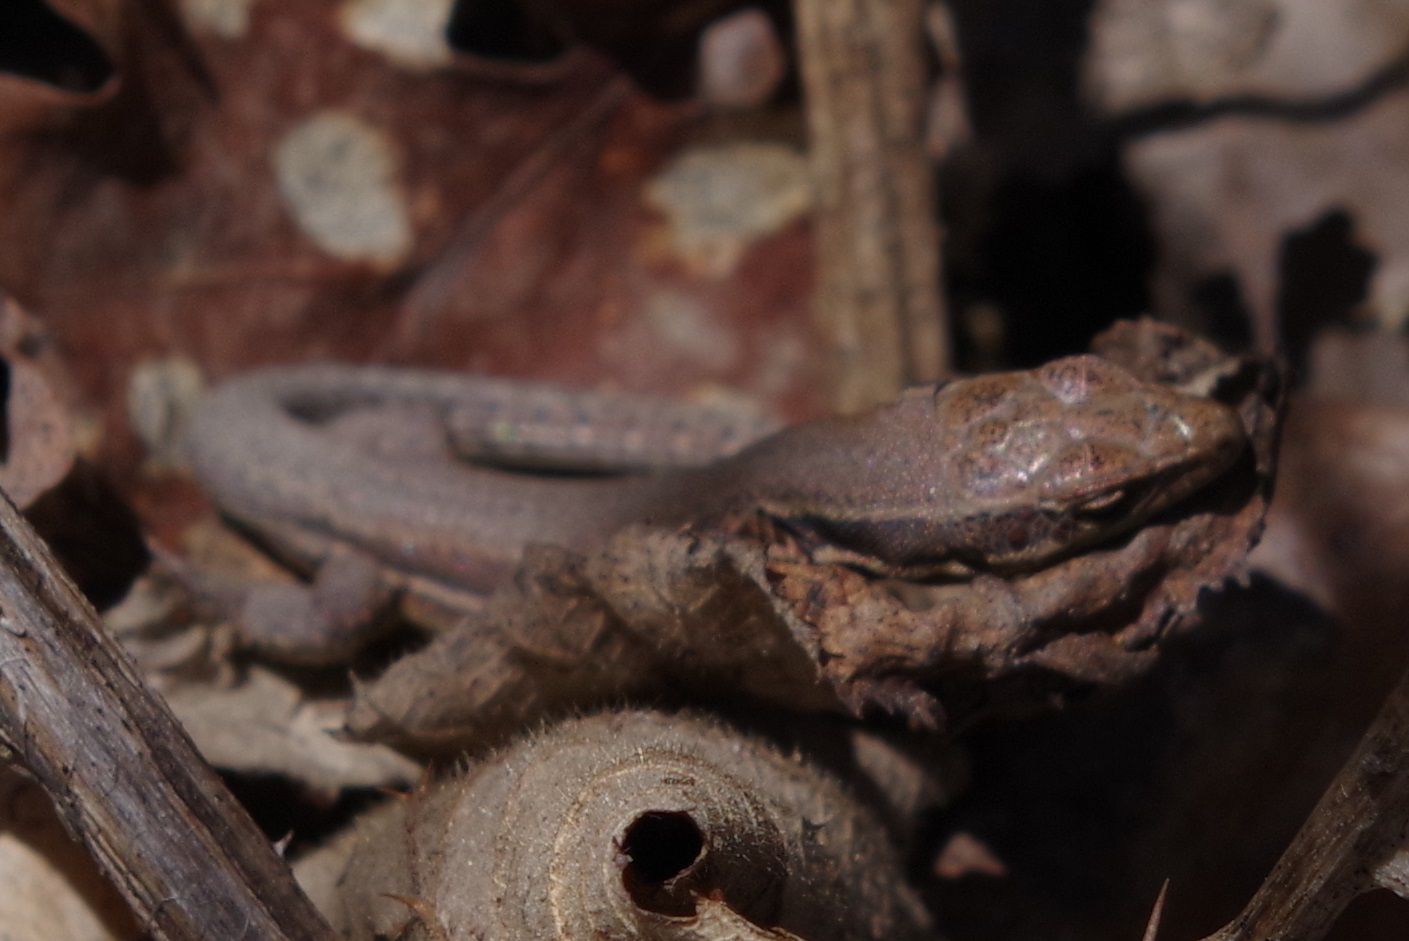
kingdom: Animalia
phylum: Chordata
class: Squamata
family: Lacertidae
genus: Podarcis
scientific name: Podarcis muralis
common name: Common wall lizard
